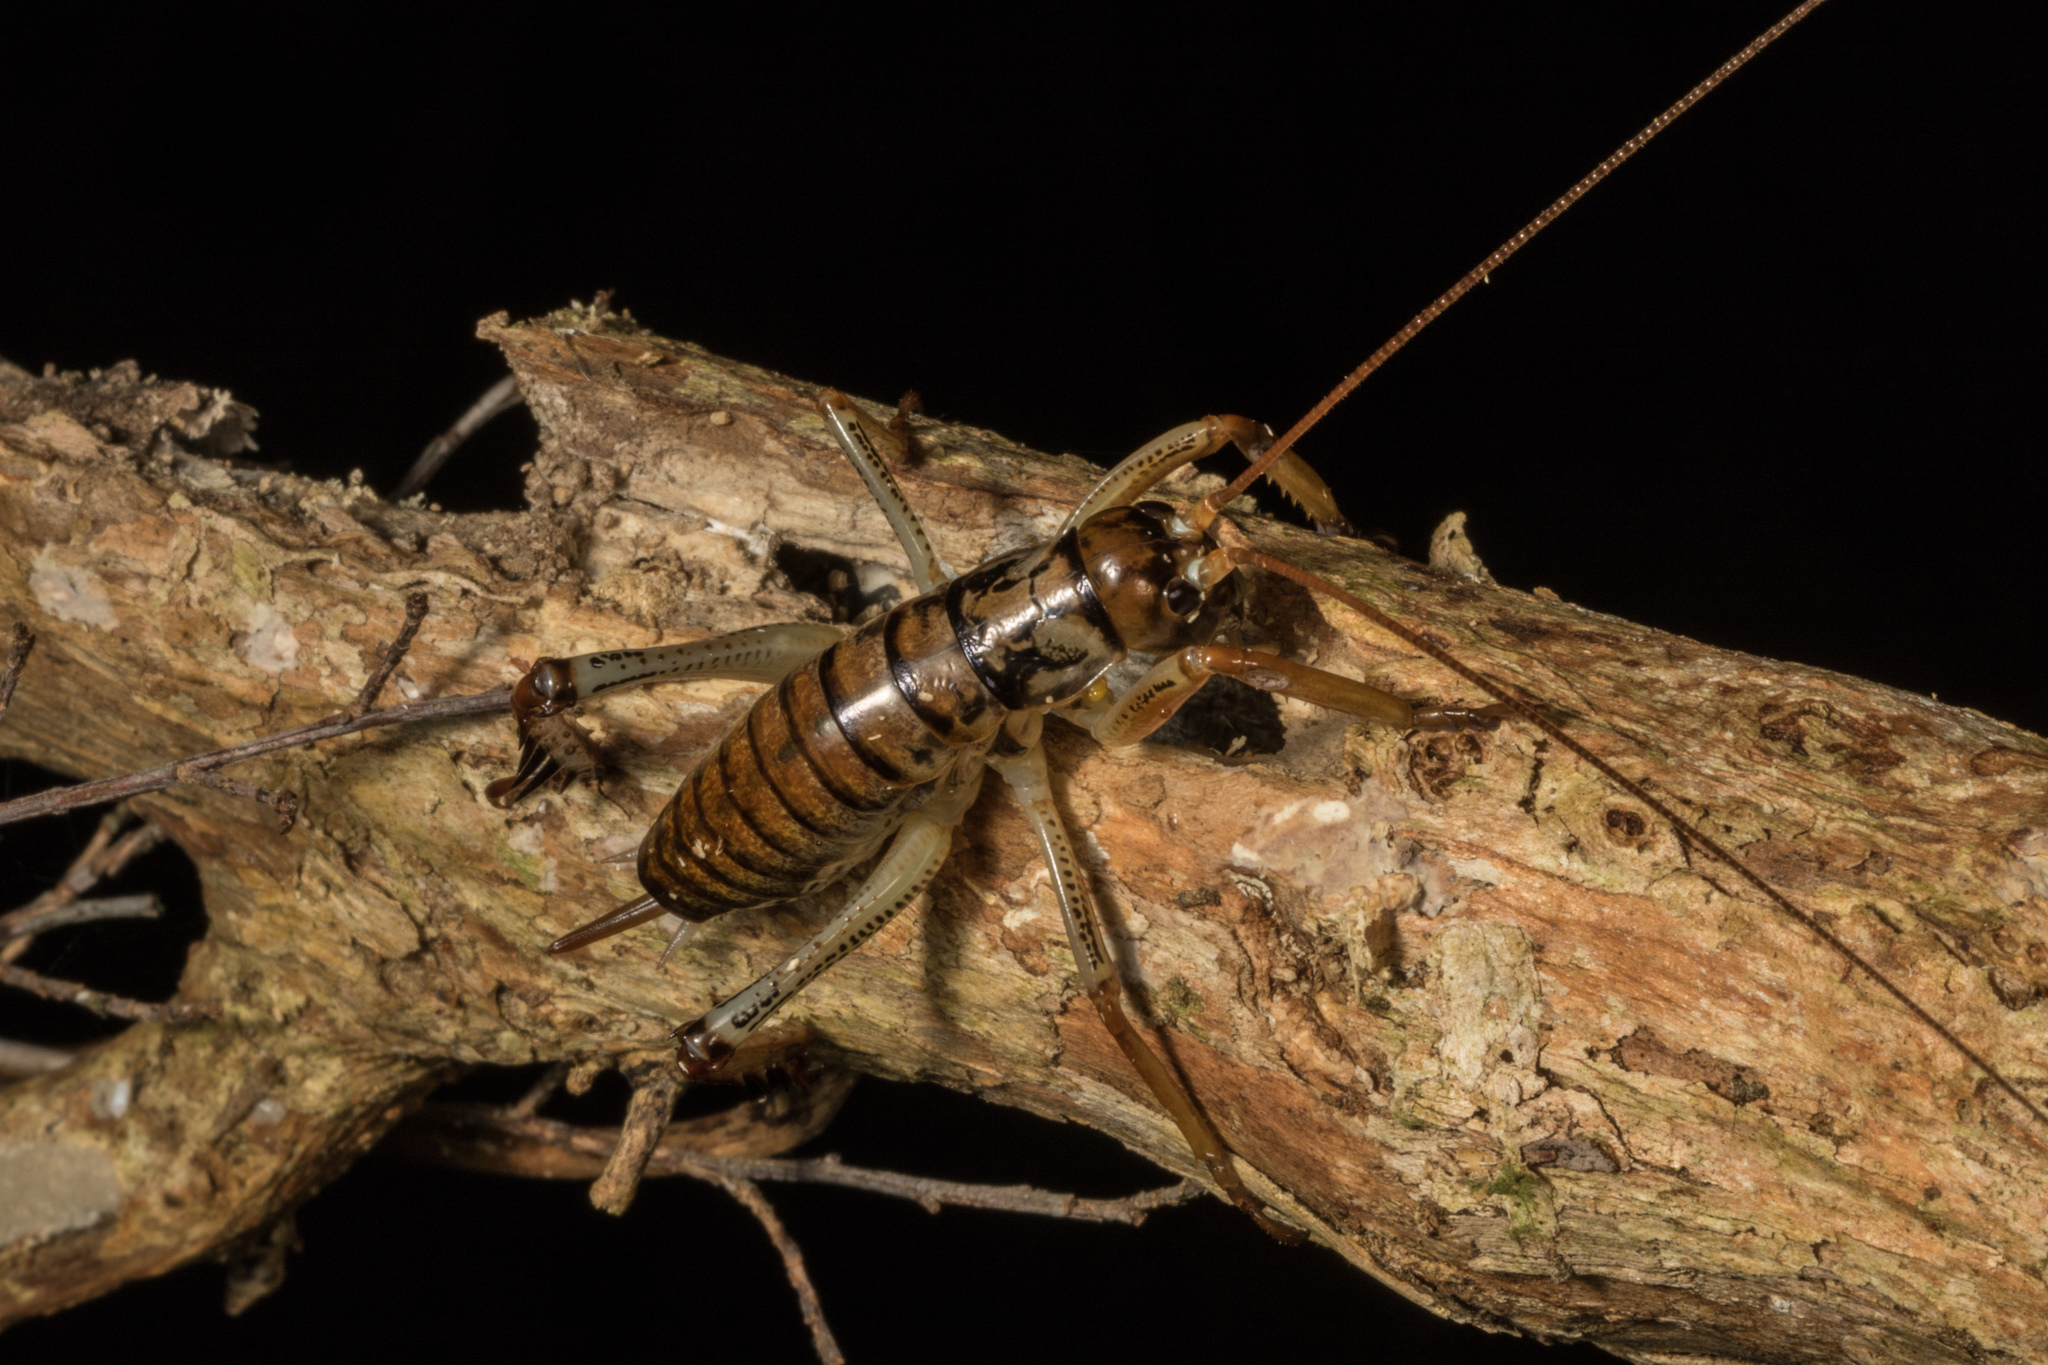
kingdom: Animalia
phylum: Arthropoda
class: Insecta
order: Orthoptera
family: Anostostomatidae
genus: Hemideina
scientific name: Hemideina thoracica
